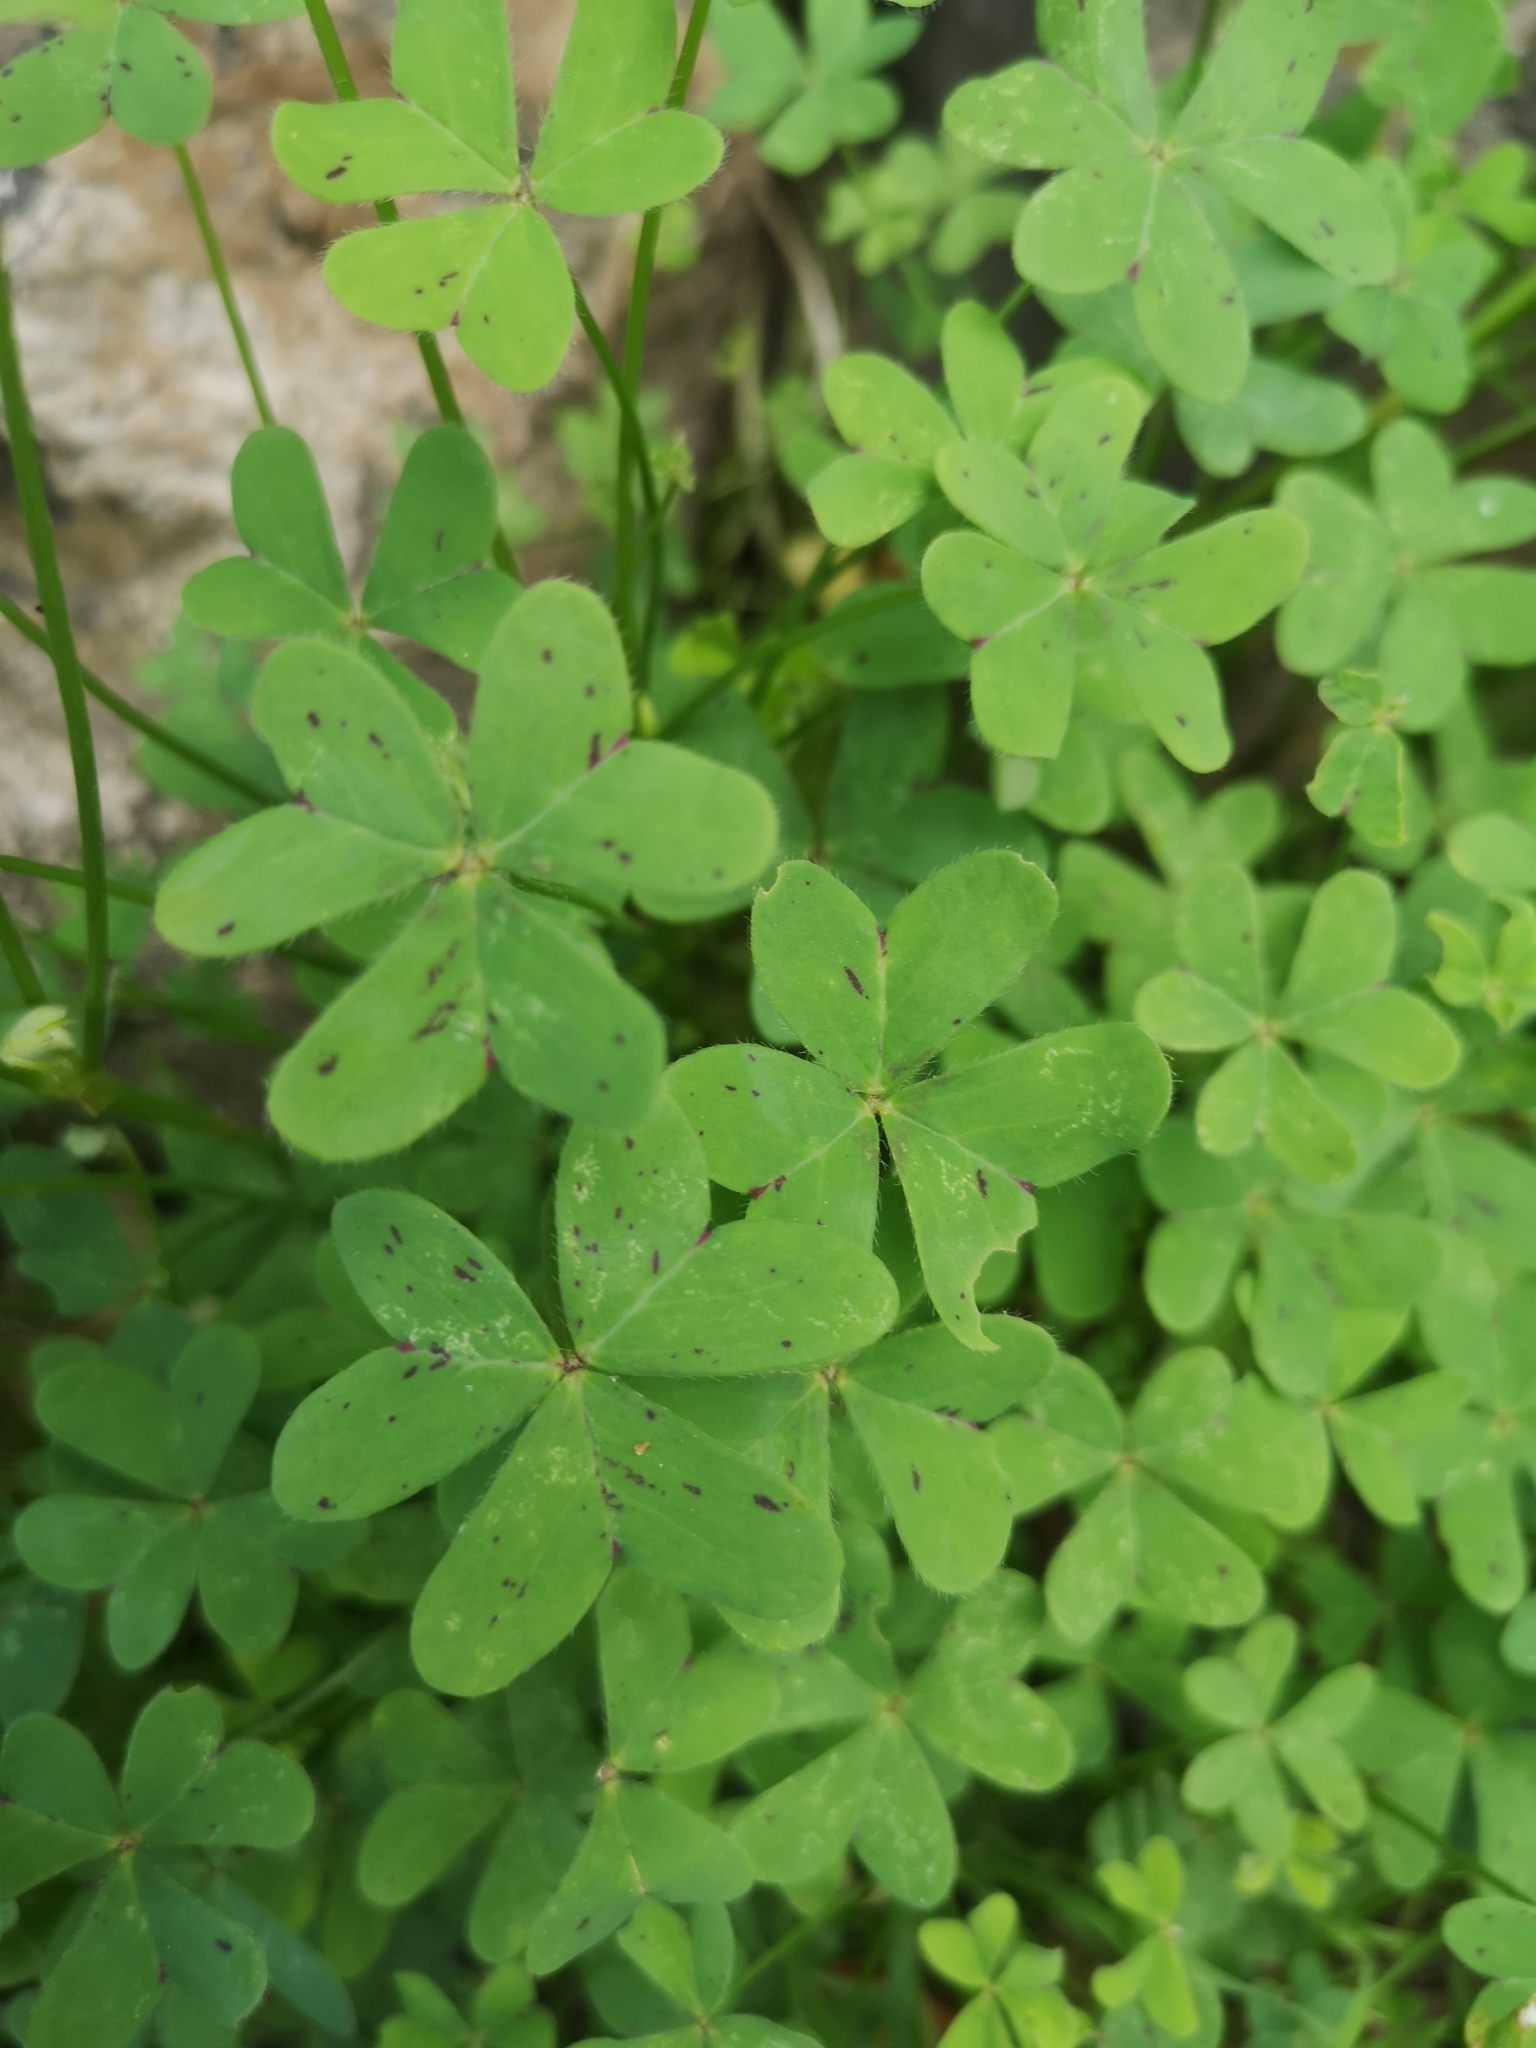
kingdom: Plantae
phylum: Tracheophyta
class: Magnoliopsida
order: Oxalidales
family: Oxalidaceae
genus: Oxalis
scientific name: Oxalis pes-caprae
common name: Bermuda-buttercup
